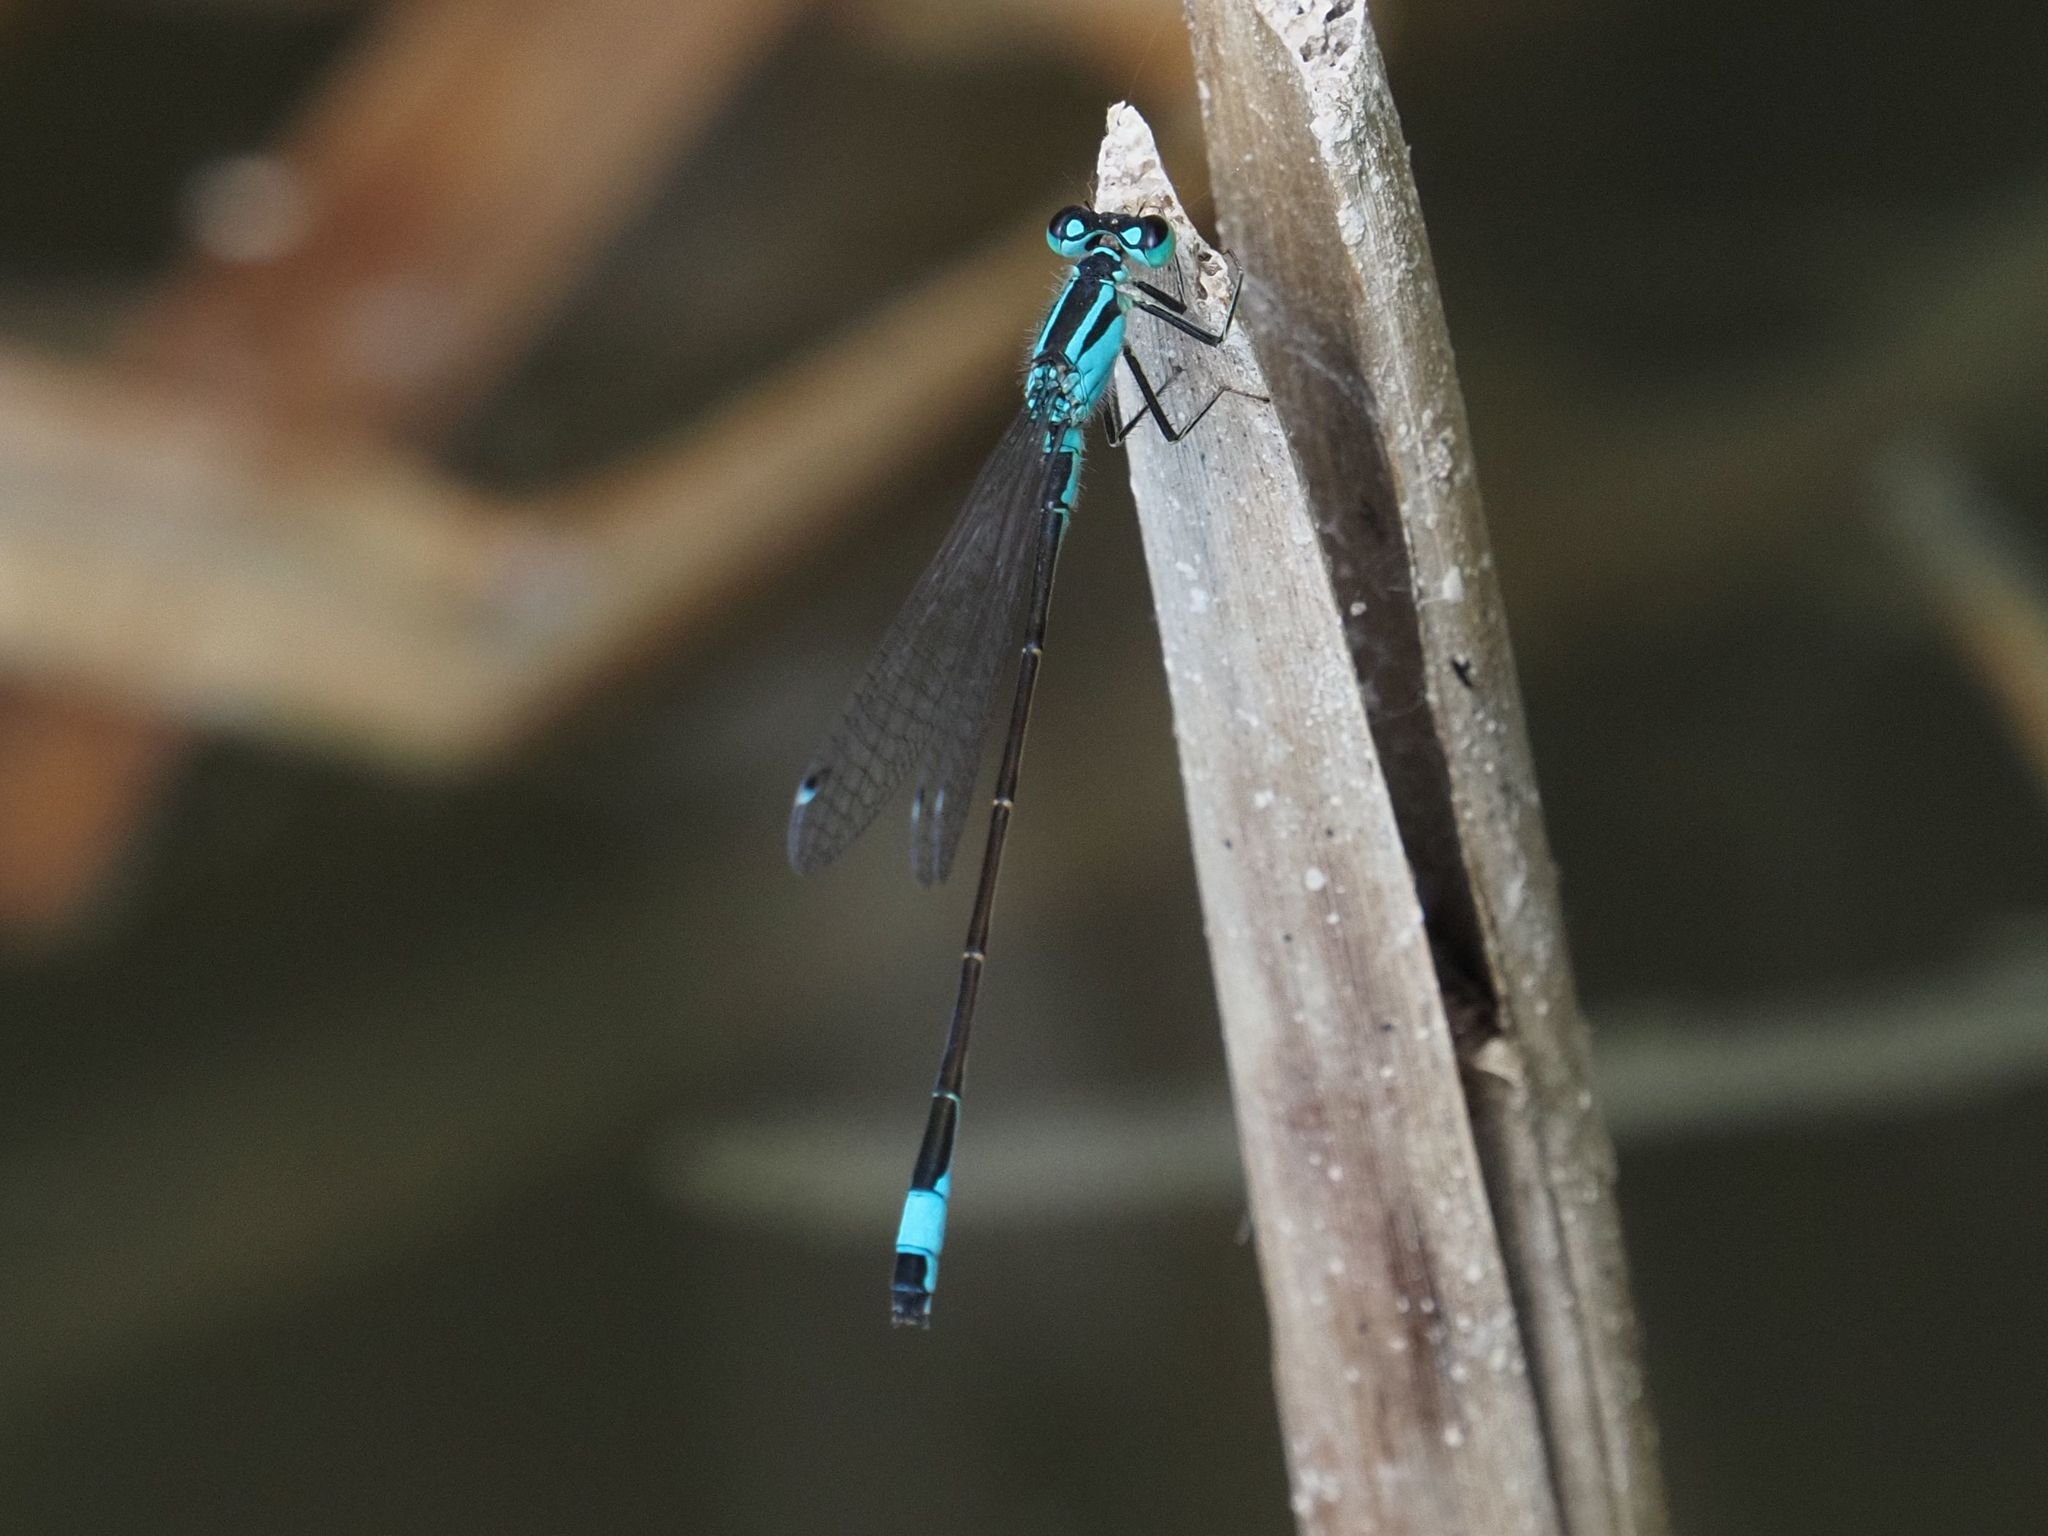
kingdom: Animalia
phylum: Arthropoda
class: Insecta
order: Odonata
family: Coenagrionidae
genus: Ischnura
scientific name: Ischnura elegans
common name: Blue-tailed damselfly
